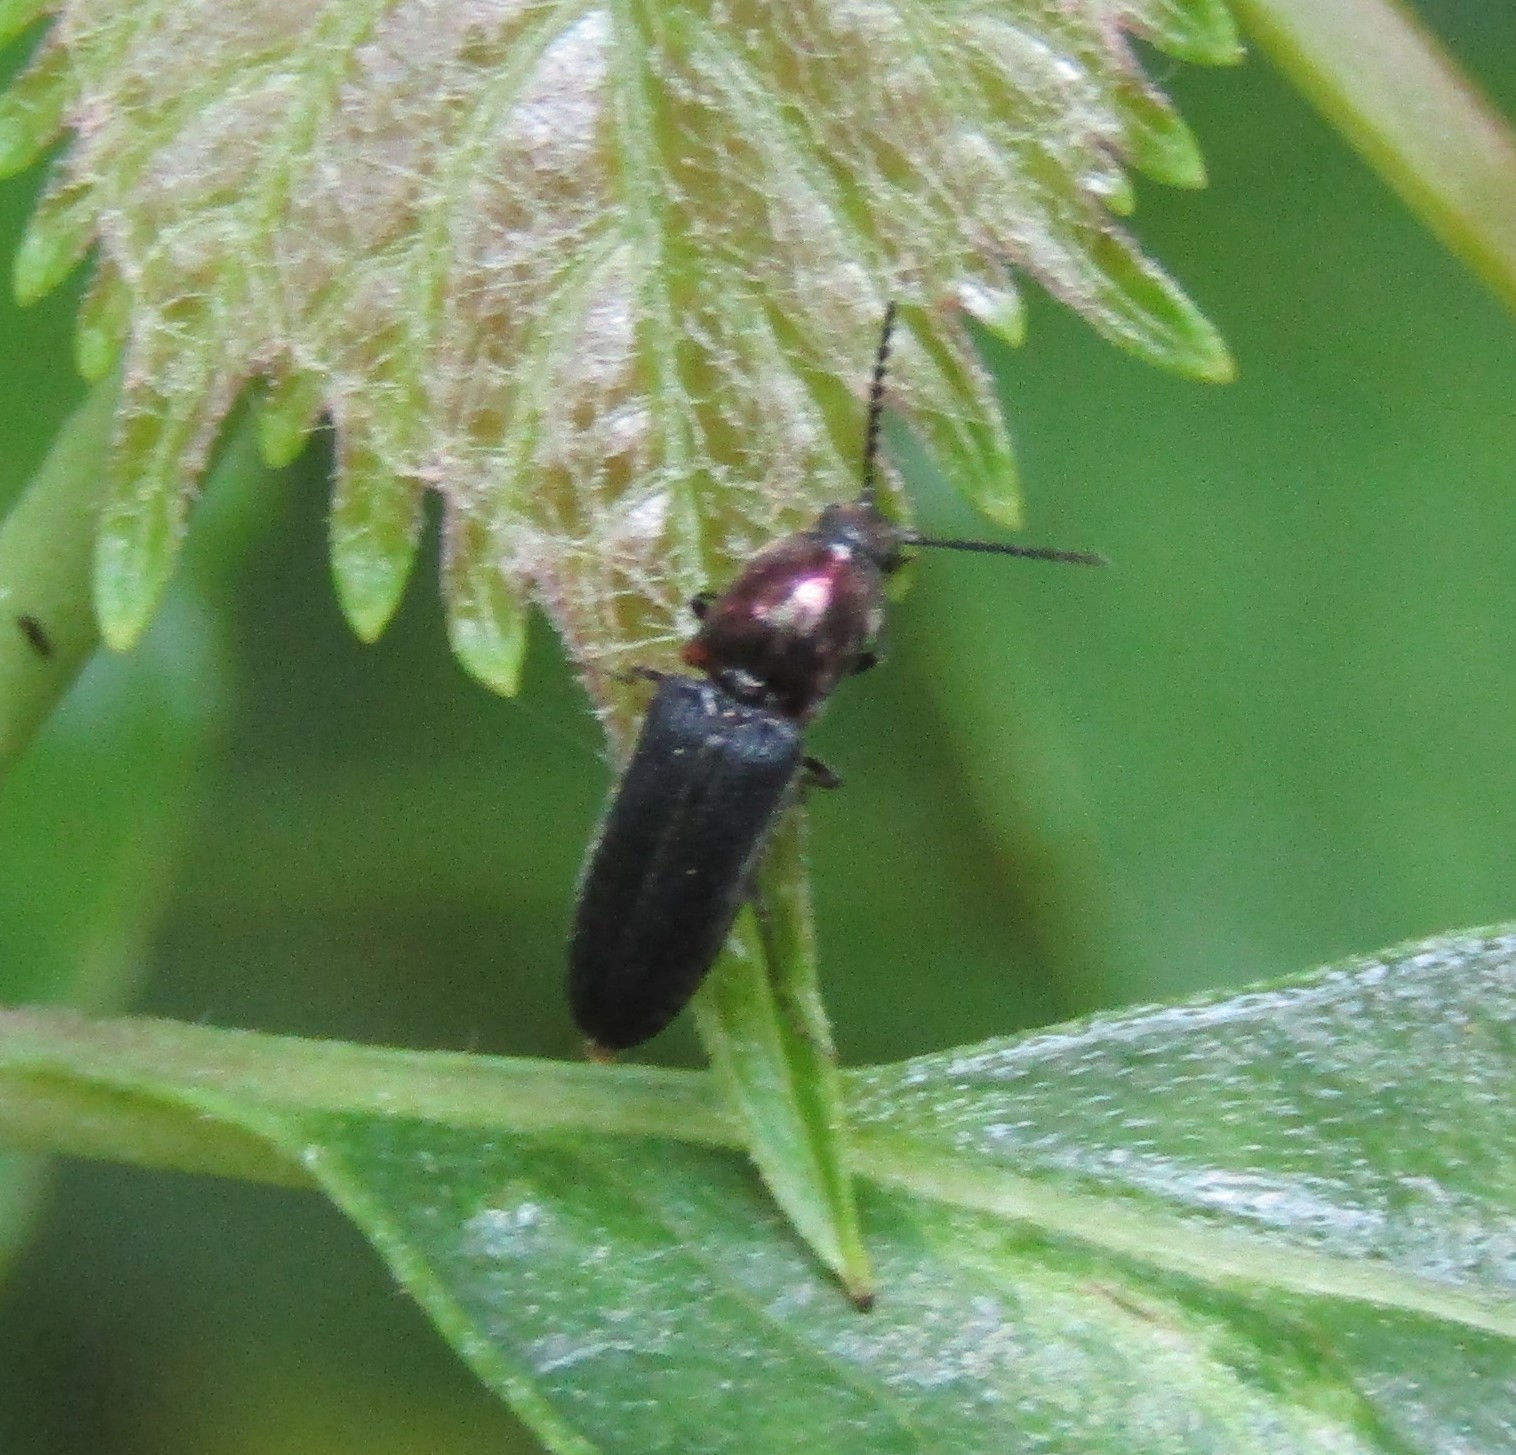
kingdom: Animalia
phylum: Arthropoda
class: Insecta
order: Coleoptera
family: Elateridae
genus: Limonius
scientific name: Limonius aurifer
